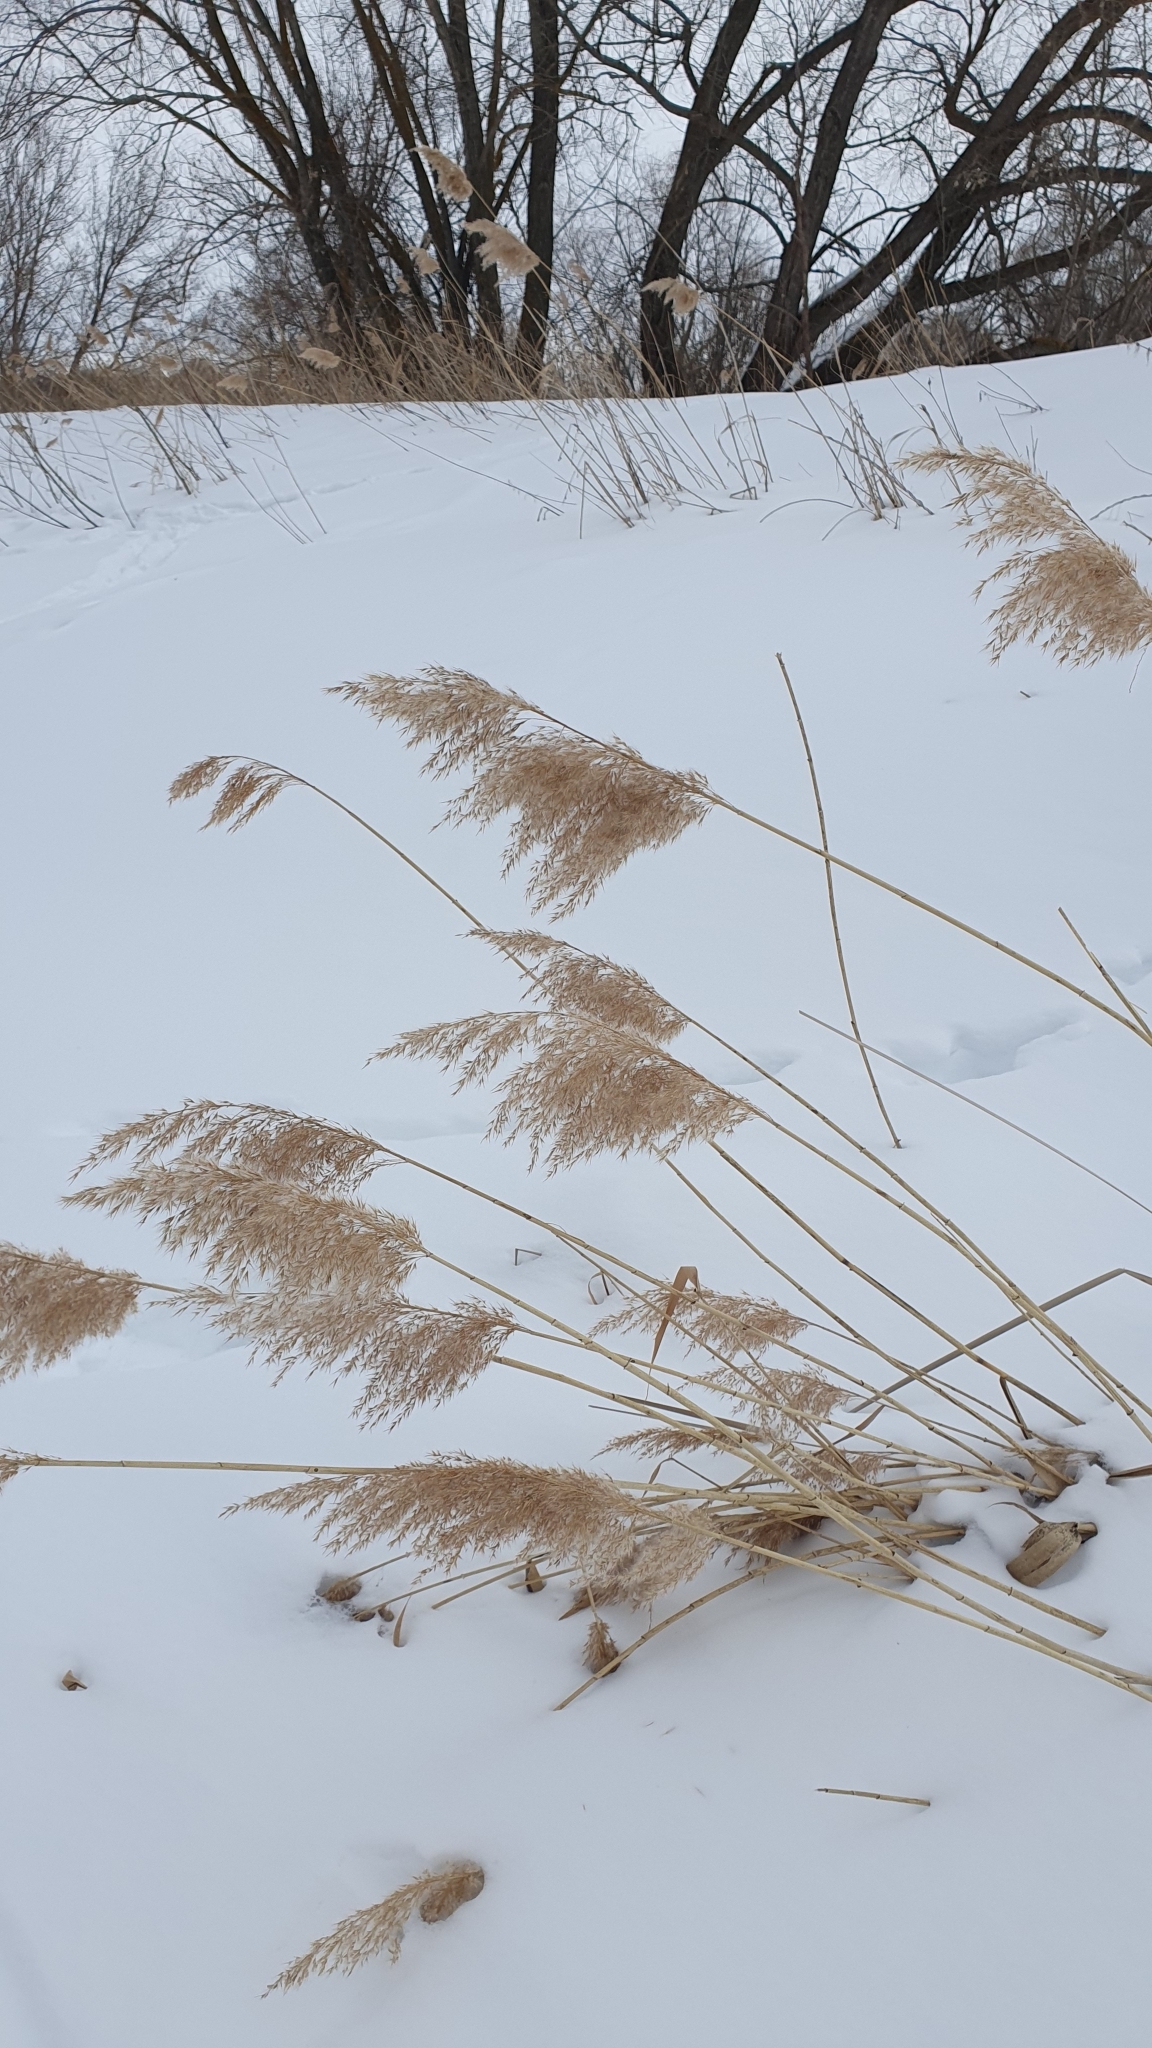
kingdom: Plantae
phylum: Tracheophyta
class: Liliopsida
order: Poales
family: Poaceae
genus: Phragmites
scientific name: Phragmites australis
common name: Common reed
